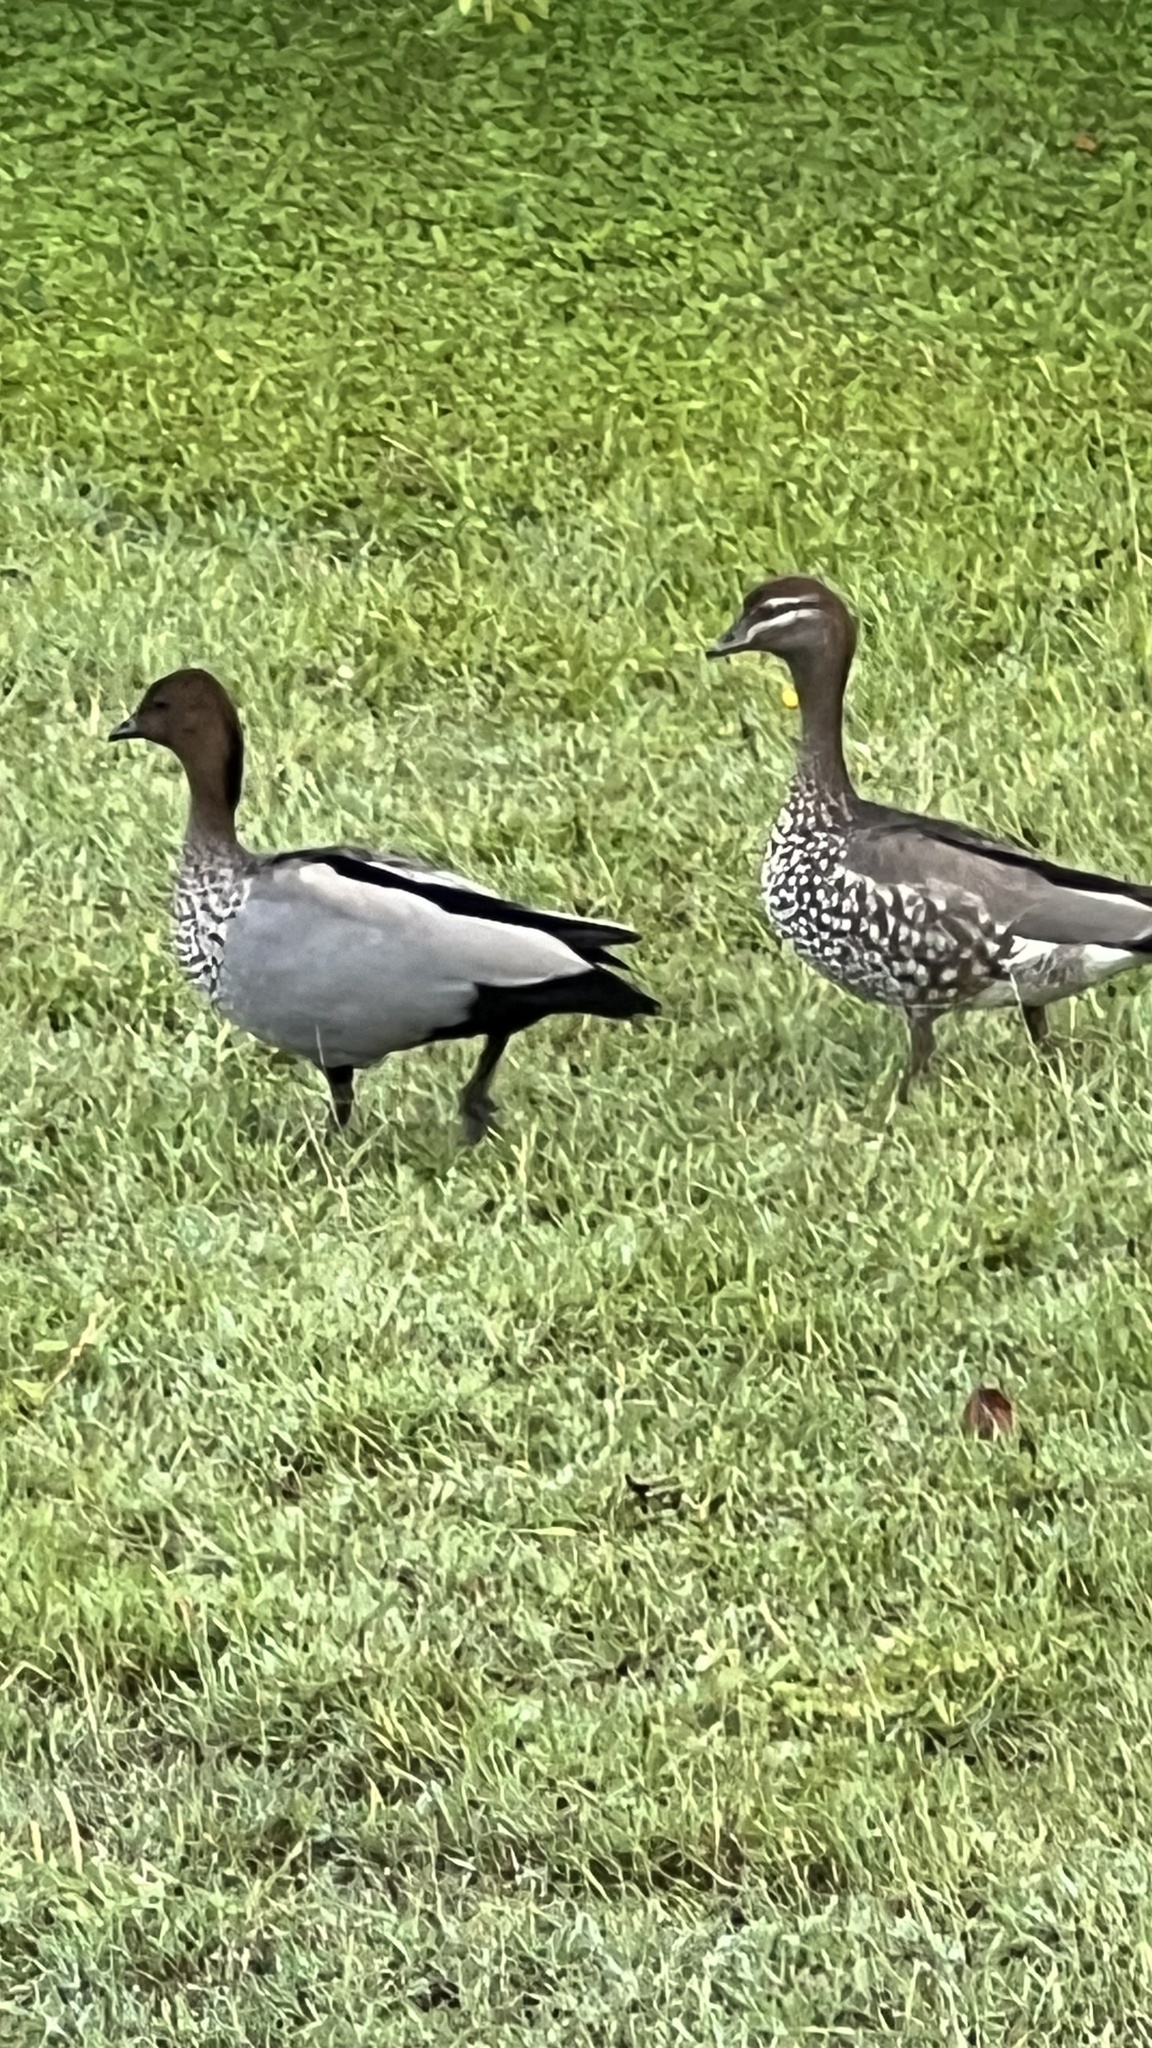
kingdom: Animalia
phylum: Chordata
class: Aves
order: Anseriformes
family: Anatidae
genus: Chenonetta
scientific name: Chenonetta jubata
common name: Maned duck
